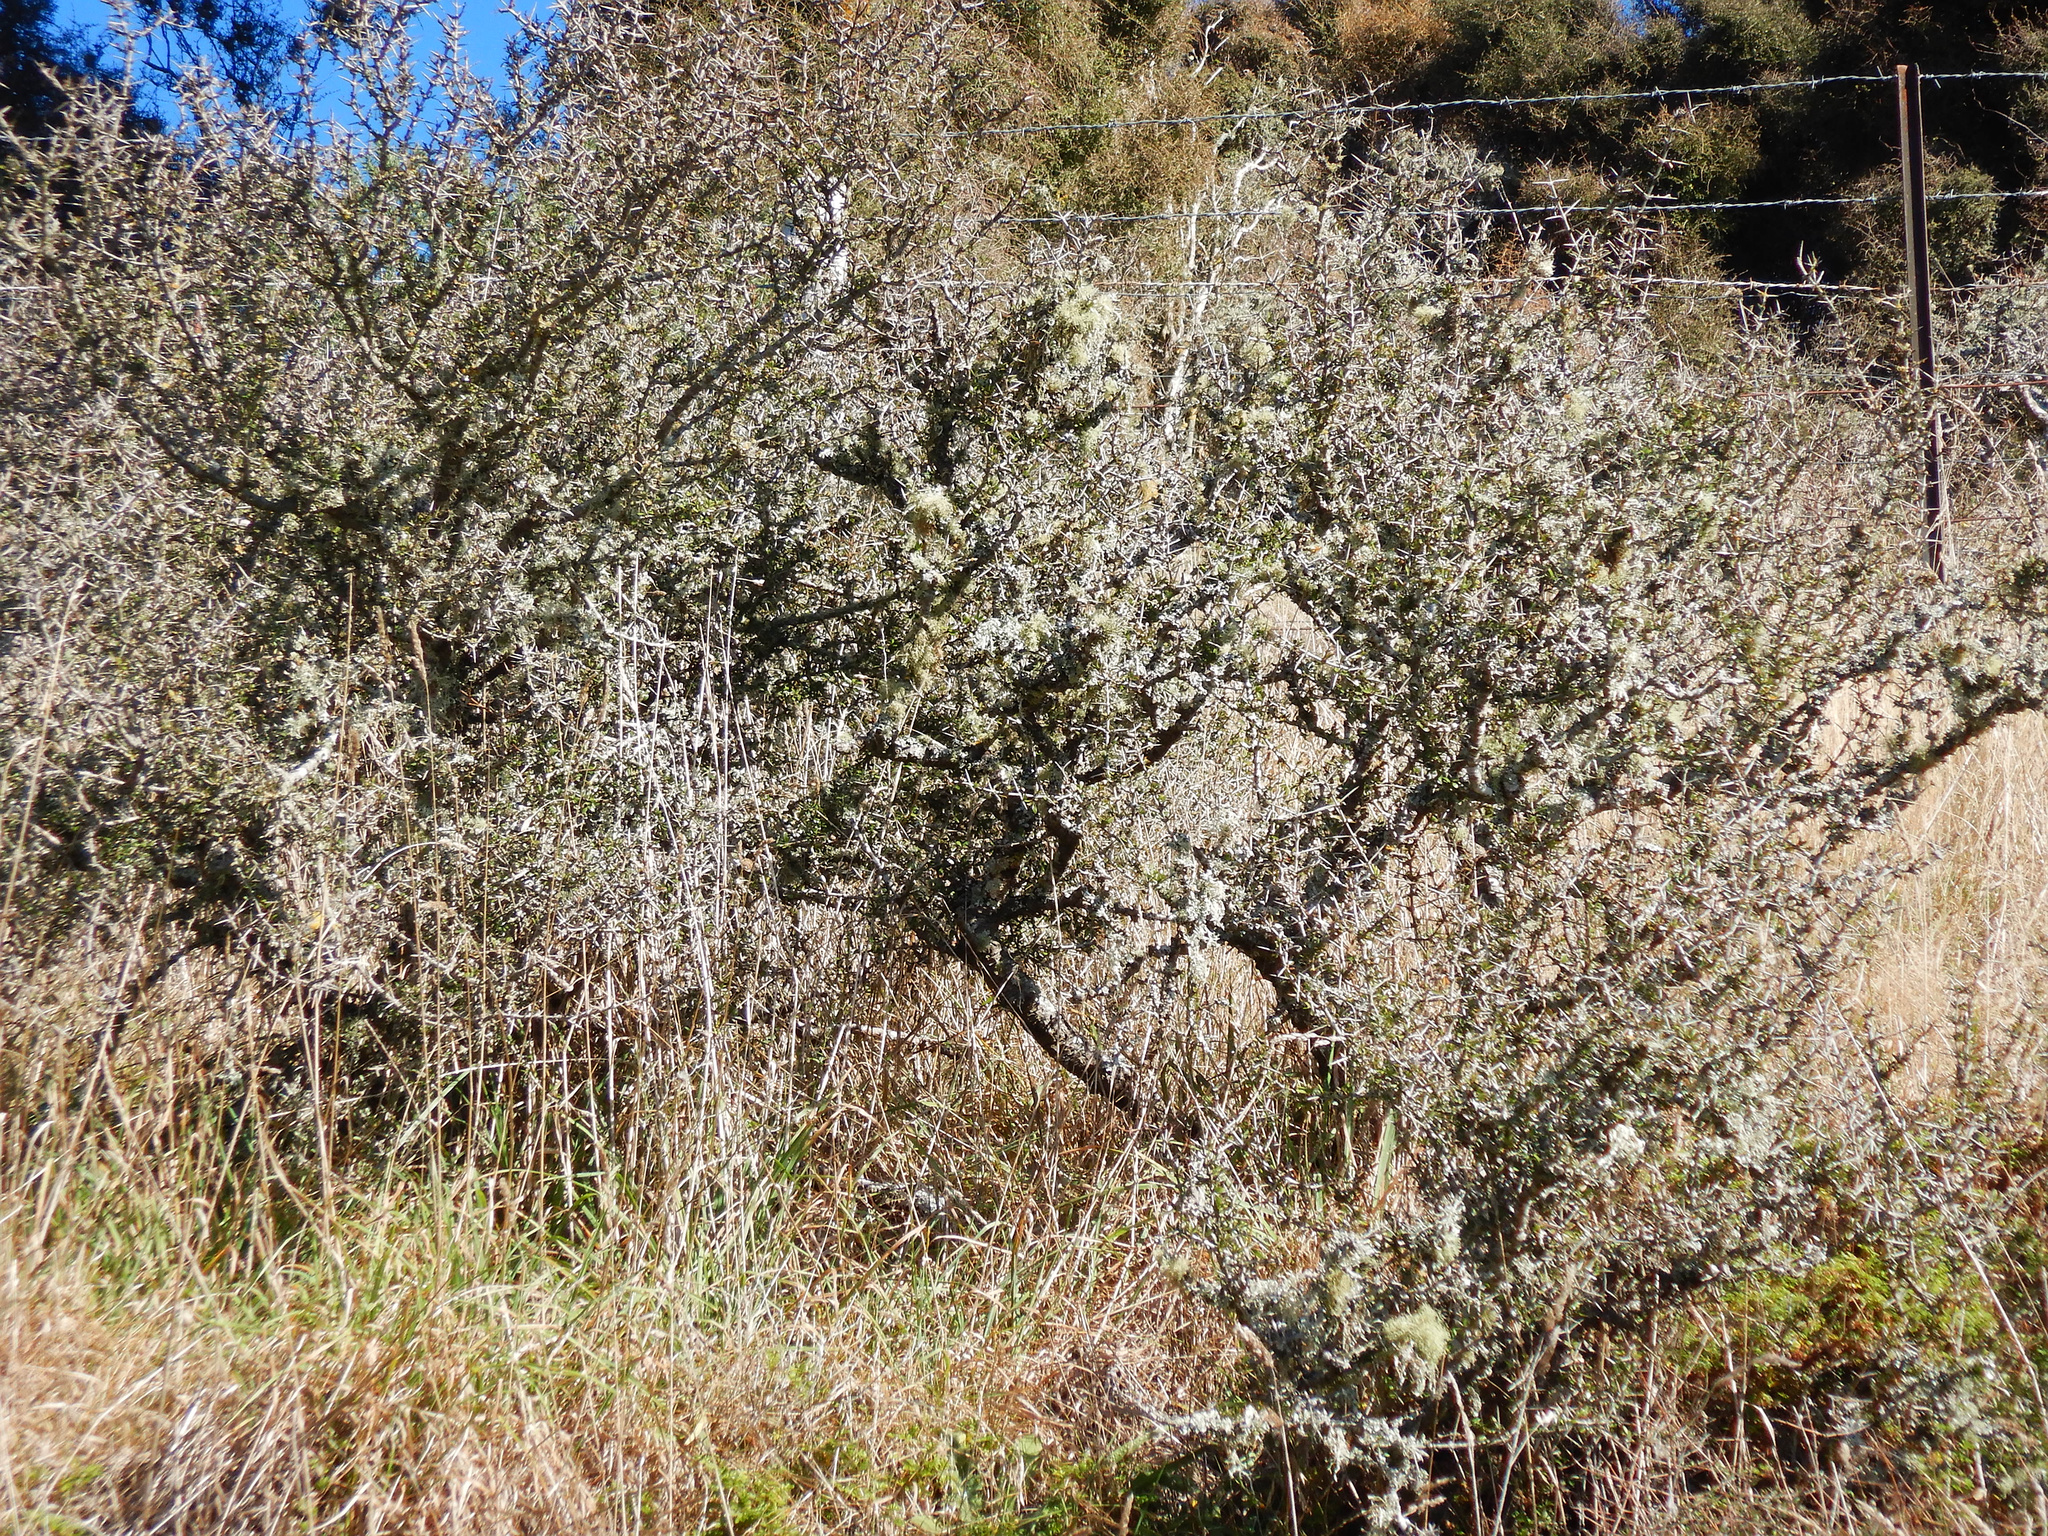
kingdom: Plantae
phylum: Tracheophyta
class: Magnoliopsida
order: Rosales
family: Rhamnaceae
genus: Discaria
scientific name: Discaria toumatou
